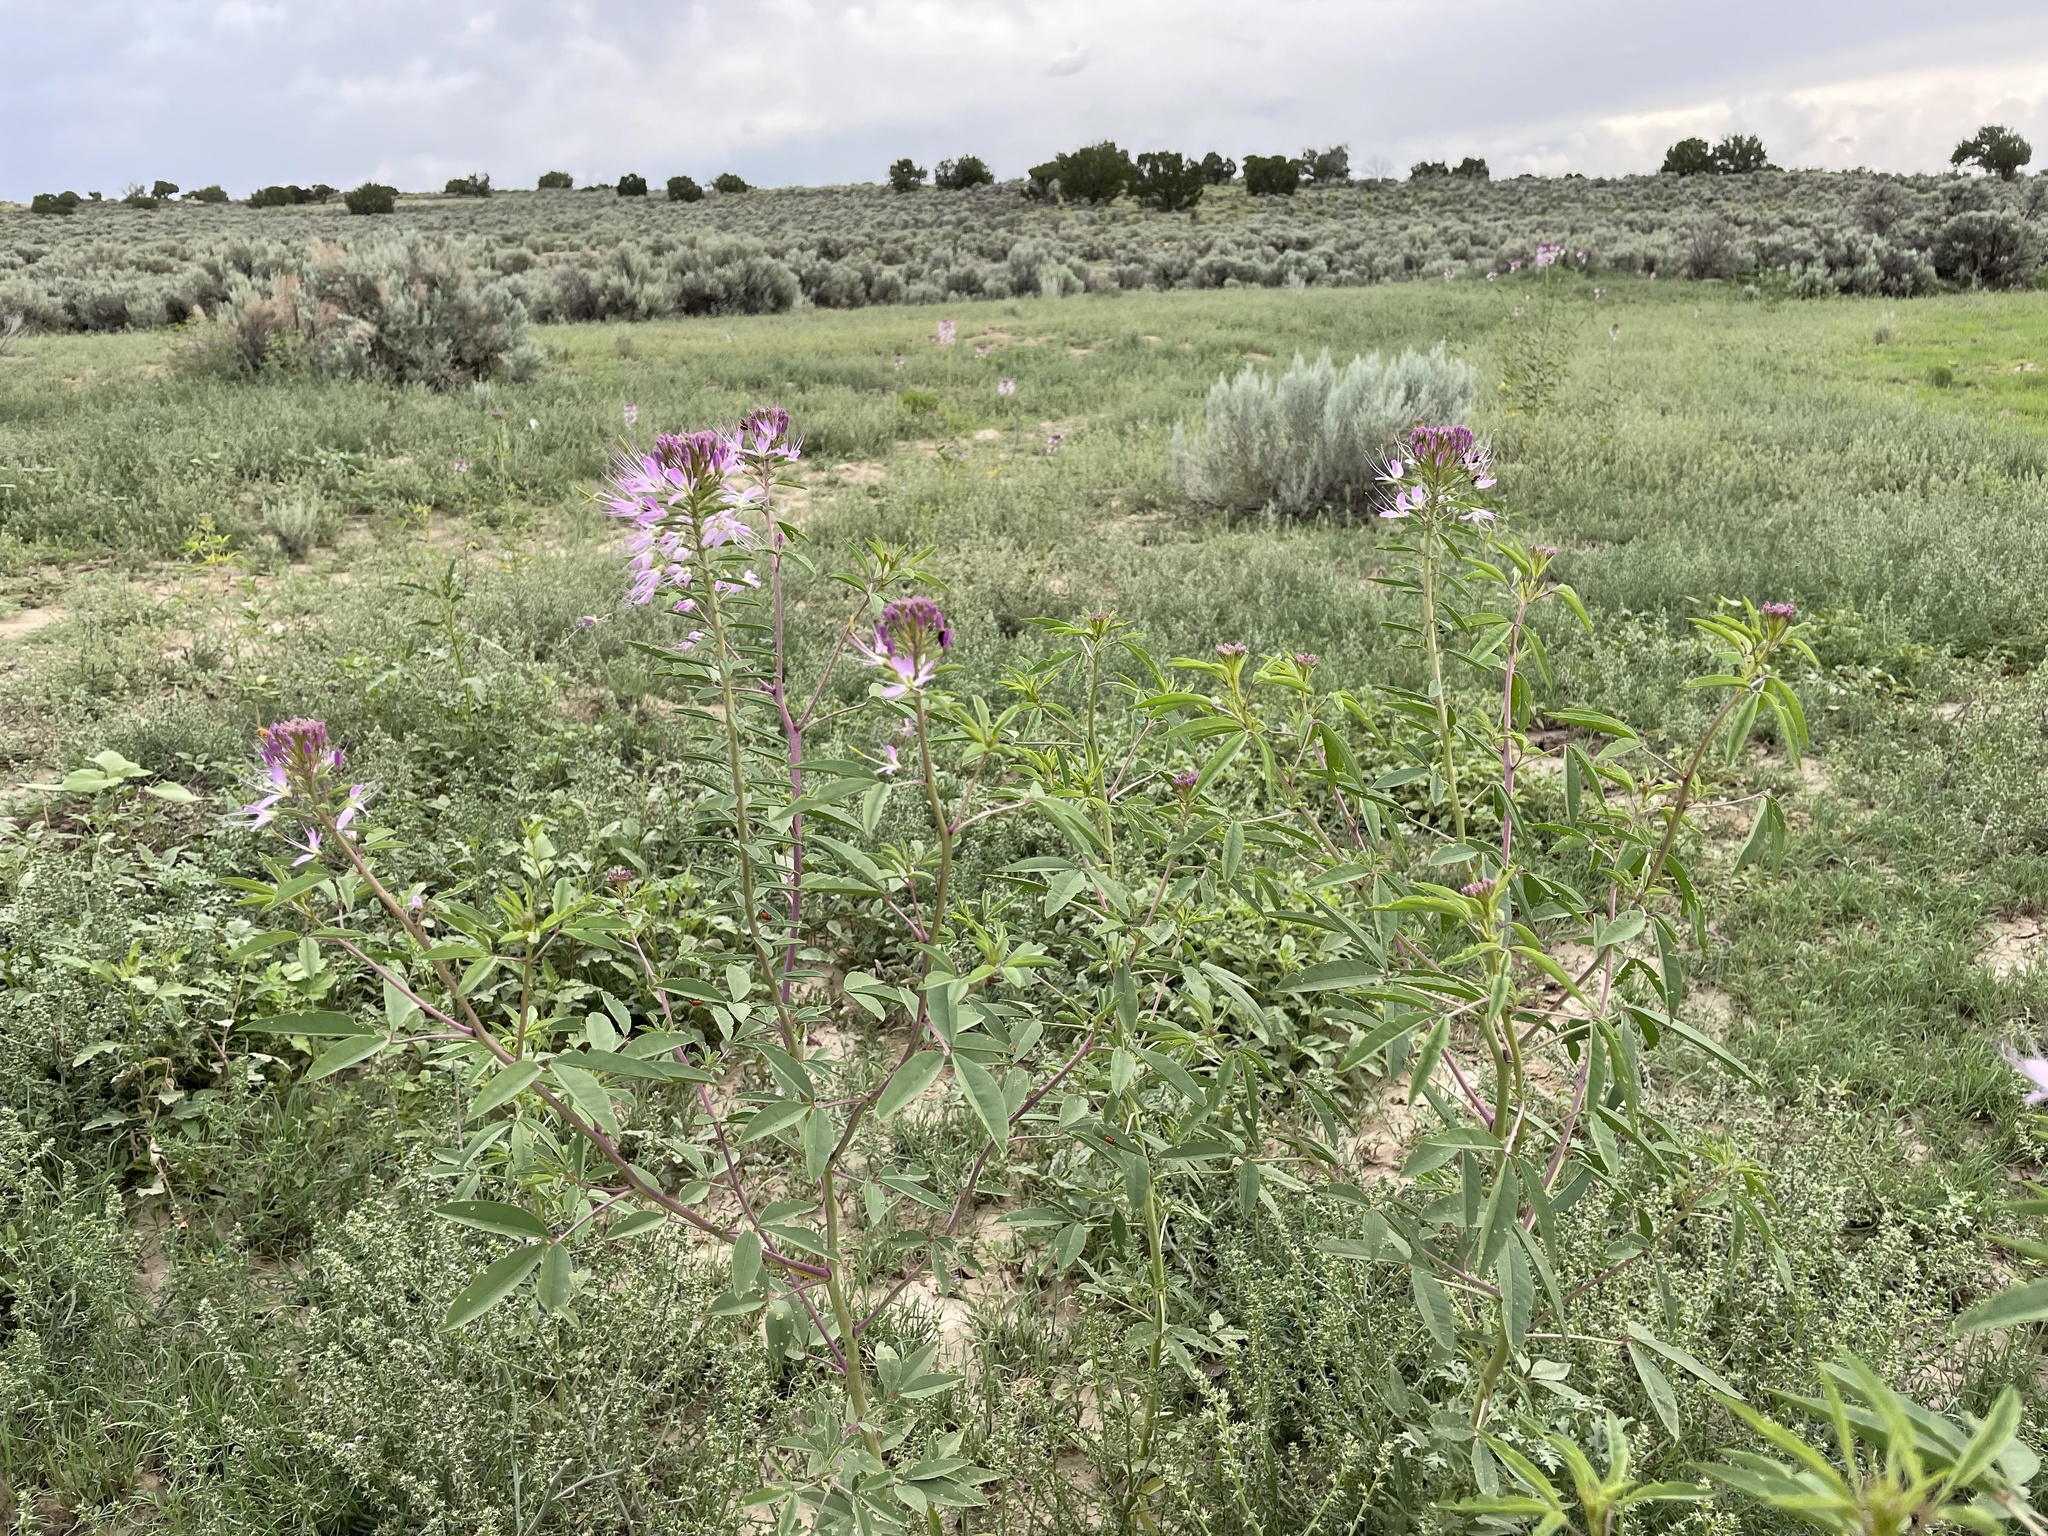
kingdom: Plantae
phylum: Tracheophyta
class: Magnoliopsida
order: Brassicales
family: Cleomaceae
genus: Cleomella
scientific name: Cleomella serrulata
